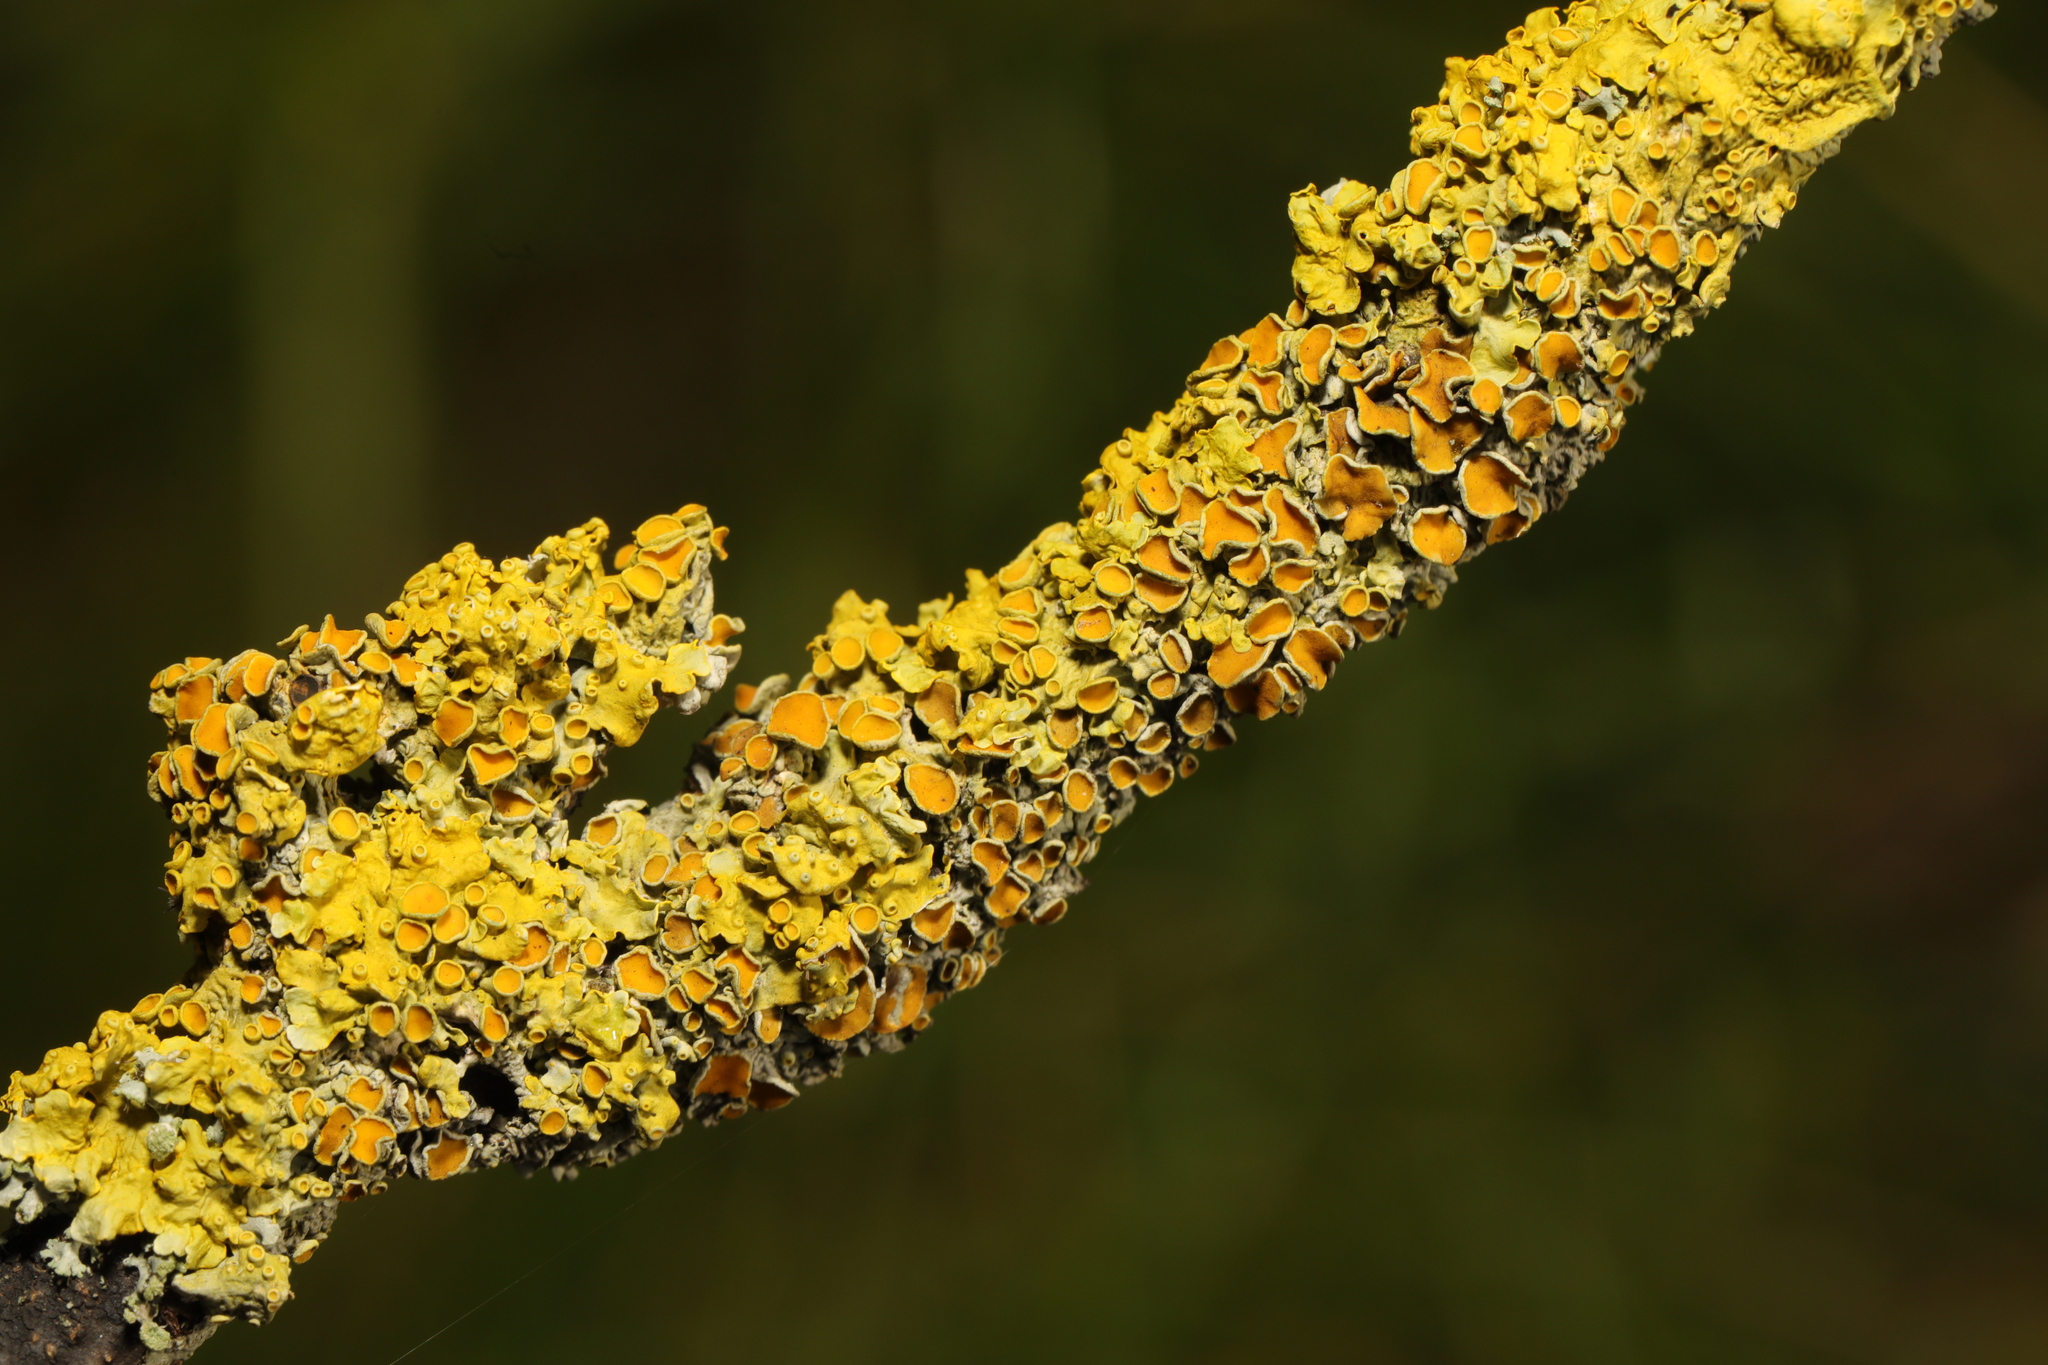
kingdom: Fungi
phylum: Ascomycota
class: Lecanoromycetes
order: Teloschistales
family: Teloschistaceae
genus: Xanthoria
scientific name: Xanthoria parietina
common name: Common orange lichen
